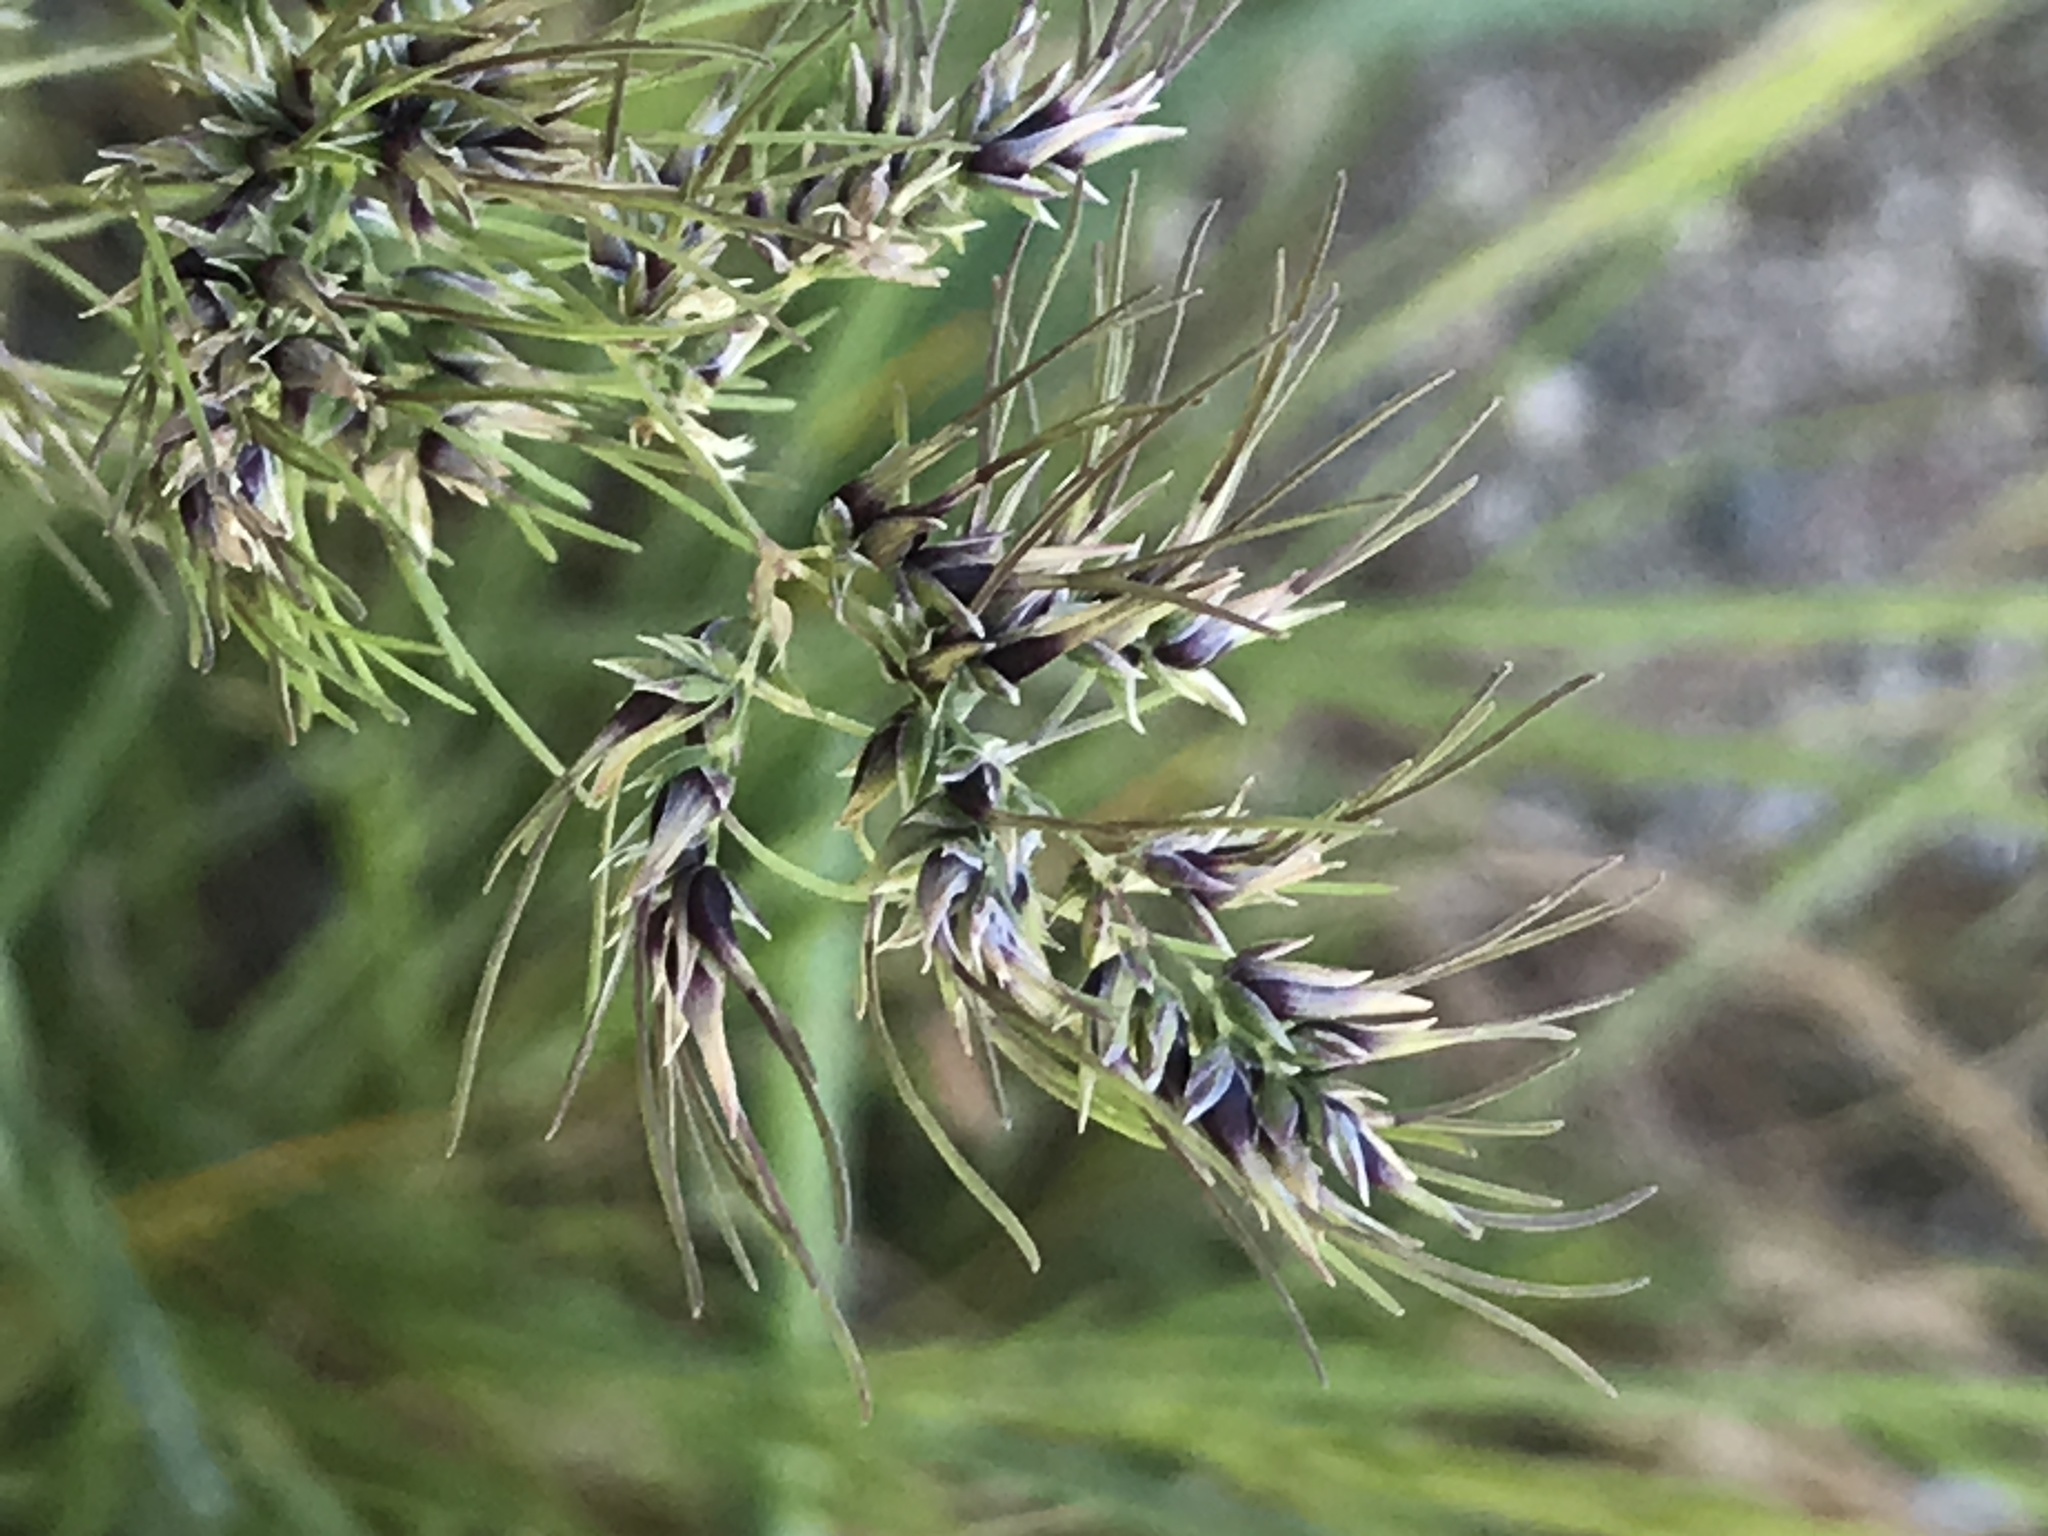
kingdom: Plantae
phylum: Tracheophyta
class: Liliopsida
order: Poales
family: Poaceae
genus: Poa
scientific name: Poa bulbosa
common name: Bulbous bluegrass
